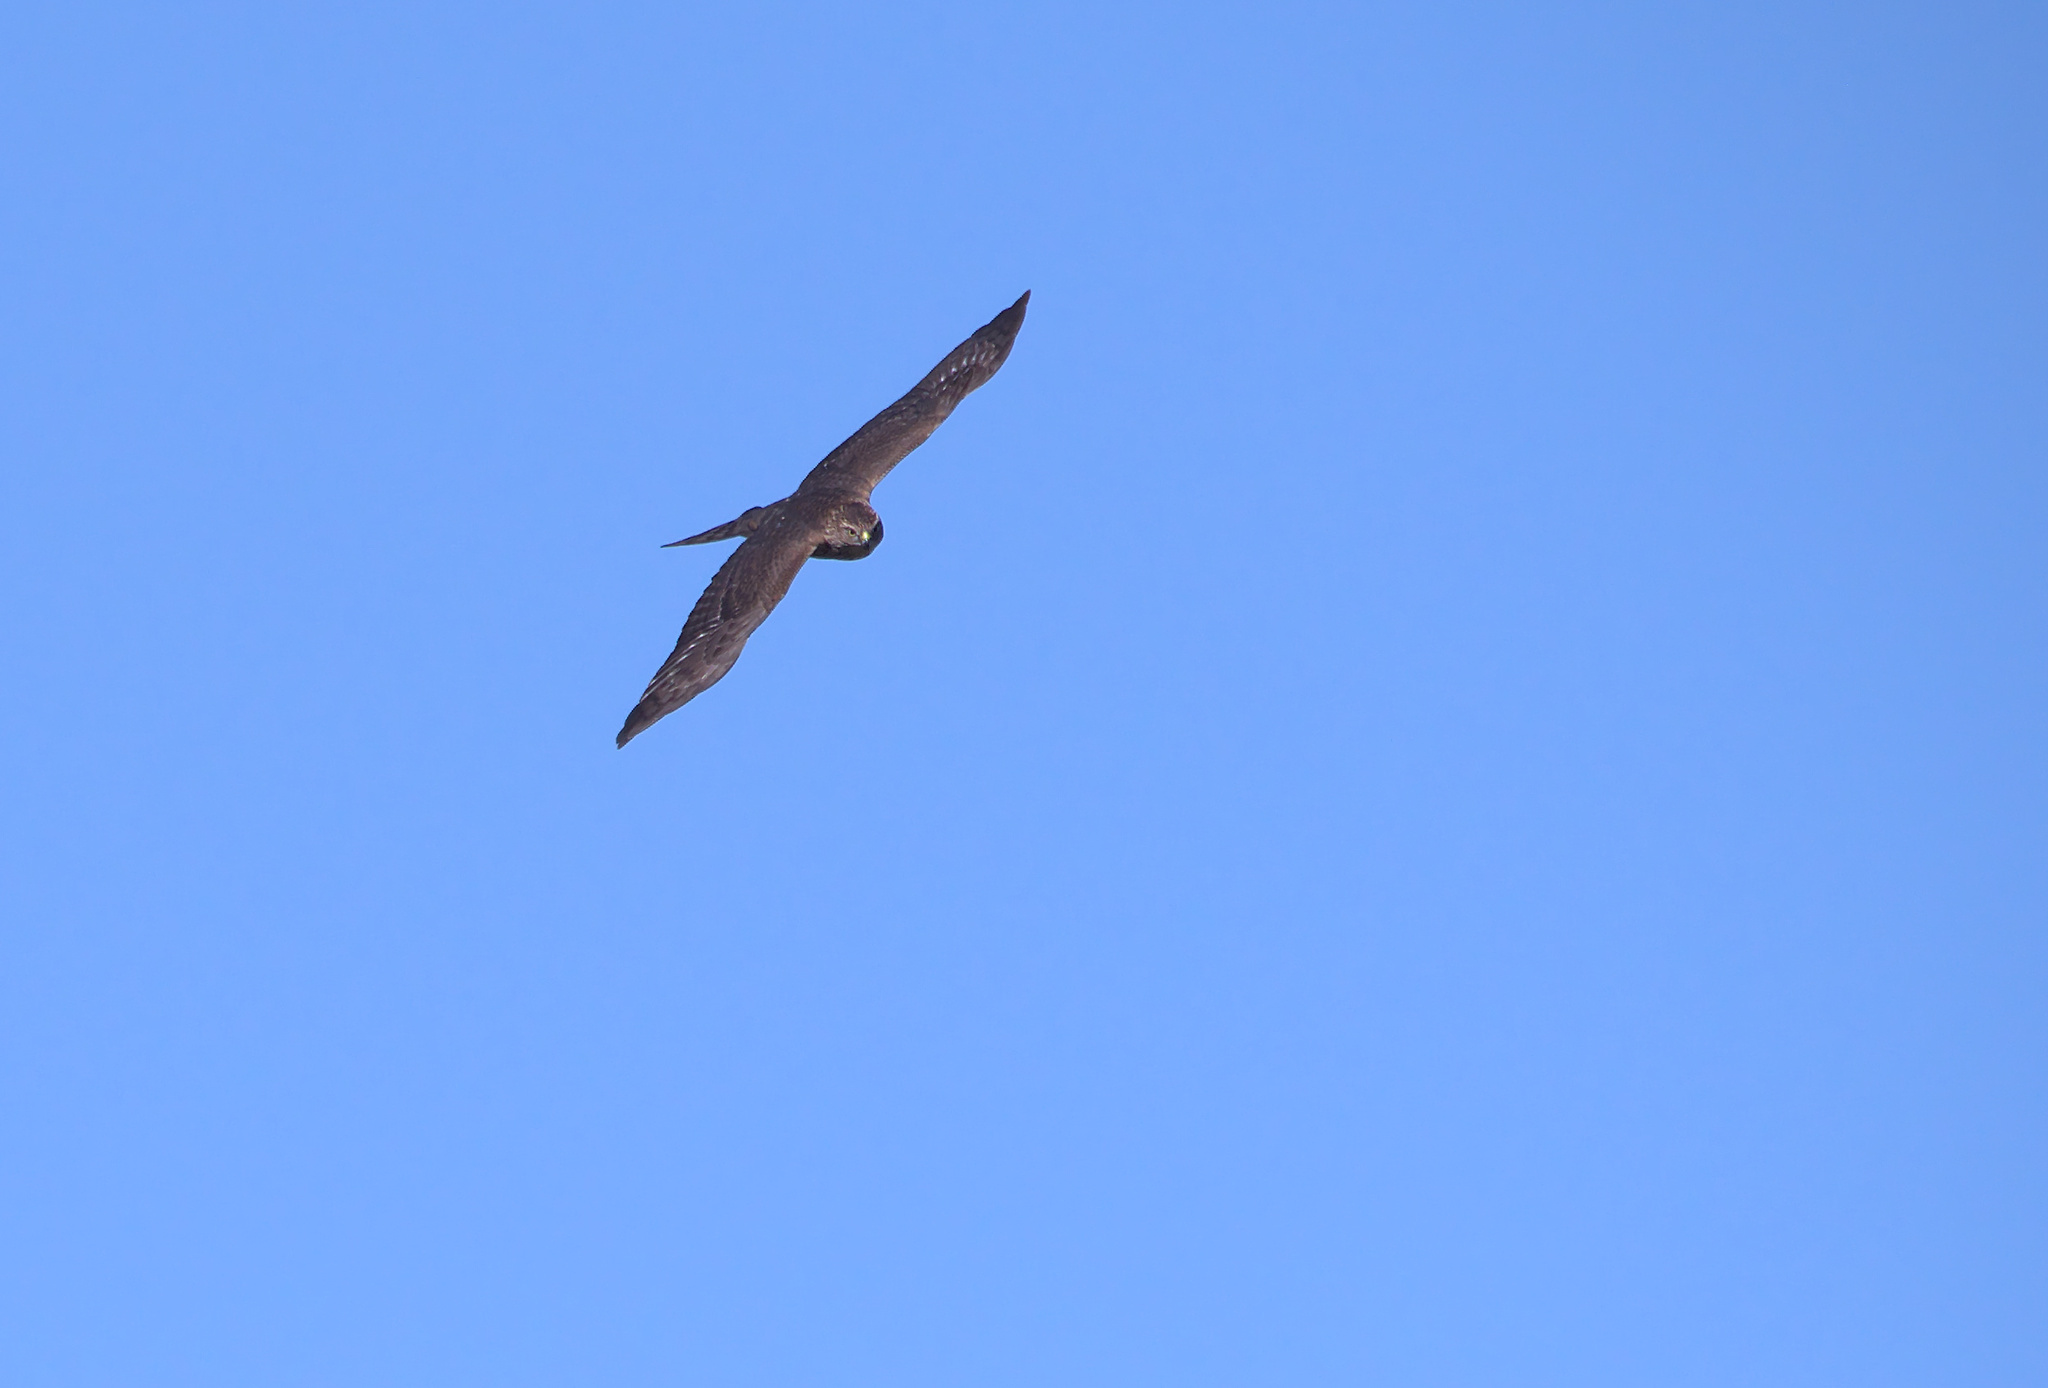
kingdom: Animalia
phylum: Chordata
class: Aves
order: Accipitriformes
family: Accipitridae
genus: Accipiter
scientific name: Accipiter striatus
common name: Sharp-shinned hawk
